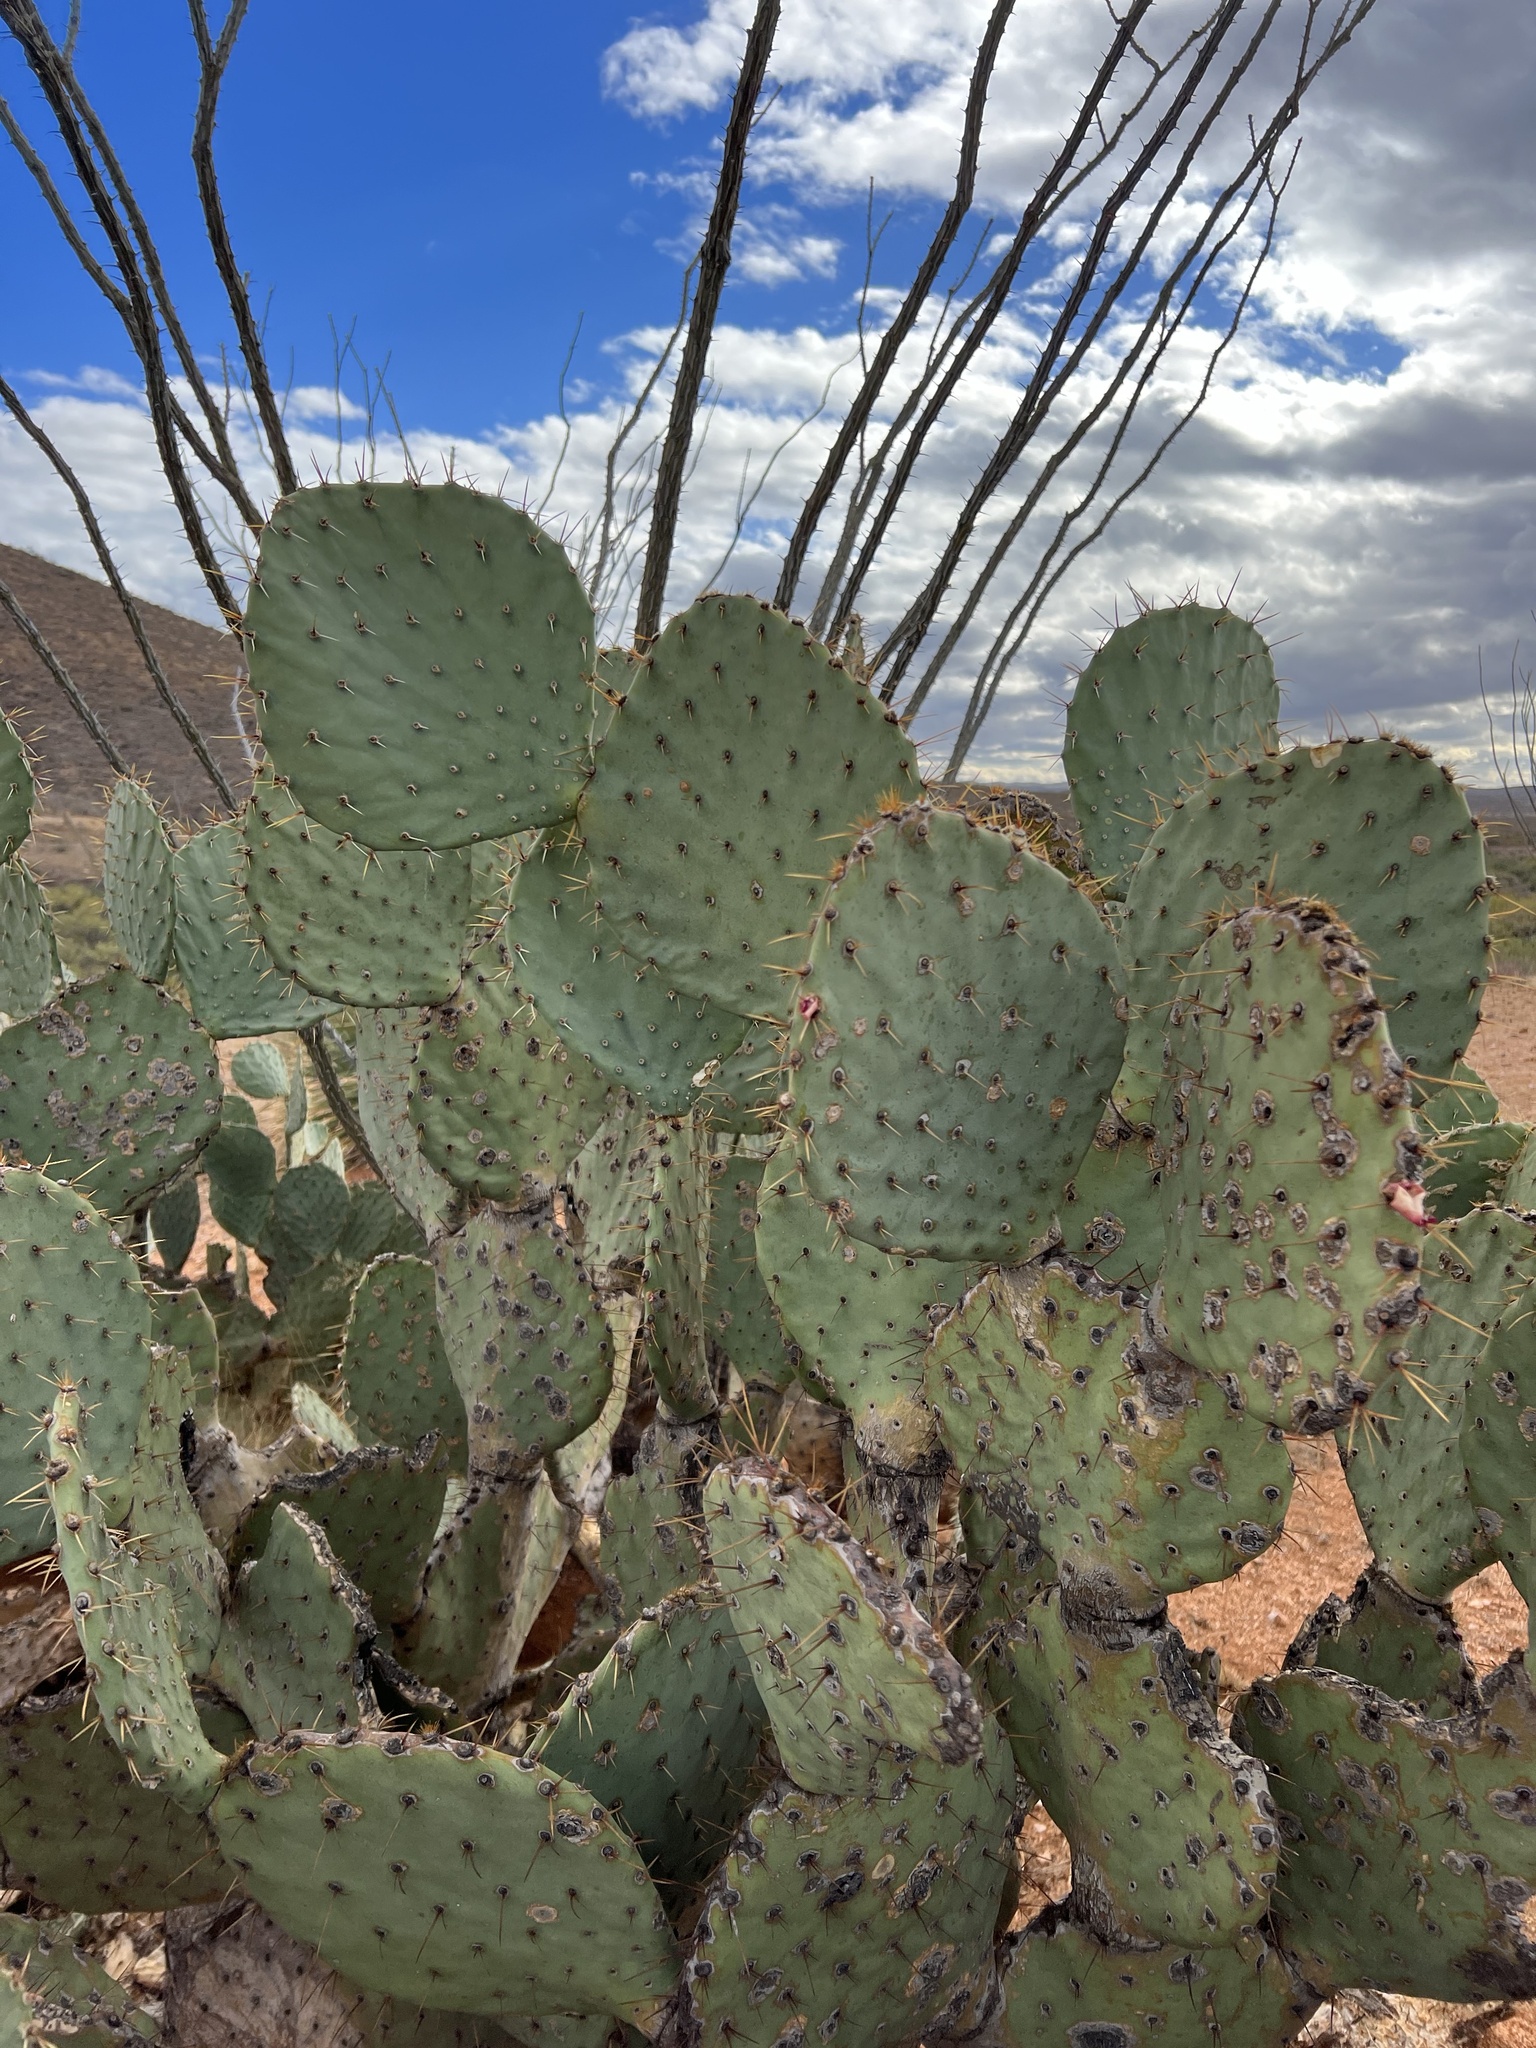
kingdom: Plantae
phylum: Tracheophyta
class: Magnoliopsida
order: Caryophyllales
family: Cactaceae
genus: Opuntia
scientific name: Opuntia engelmannii
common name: Cactus-apple
